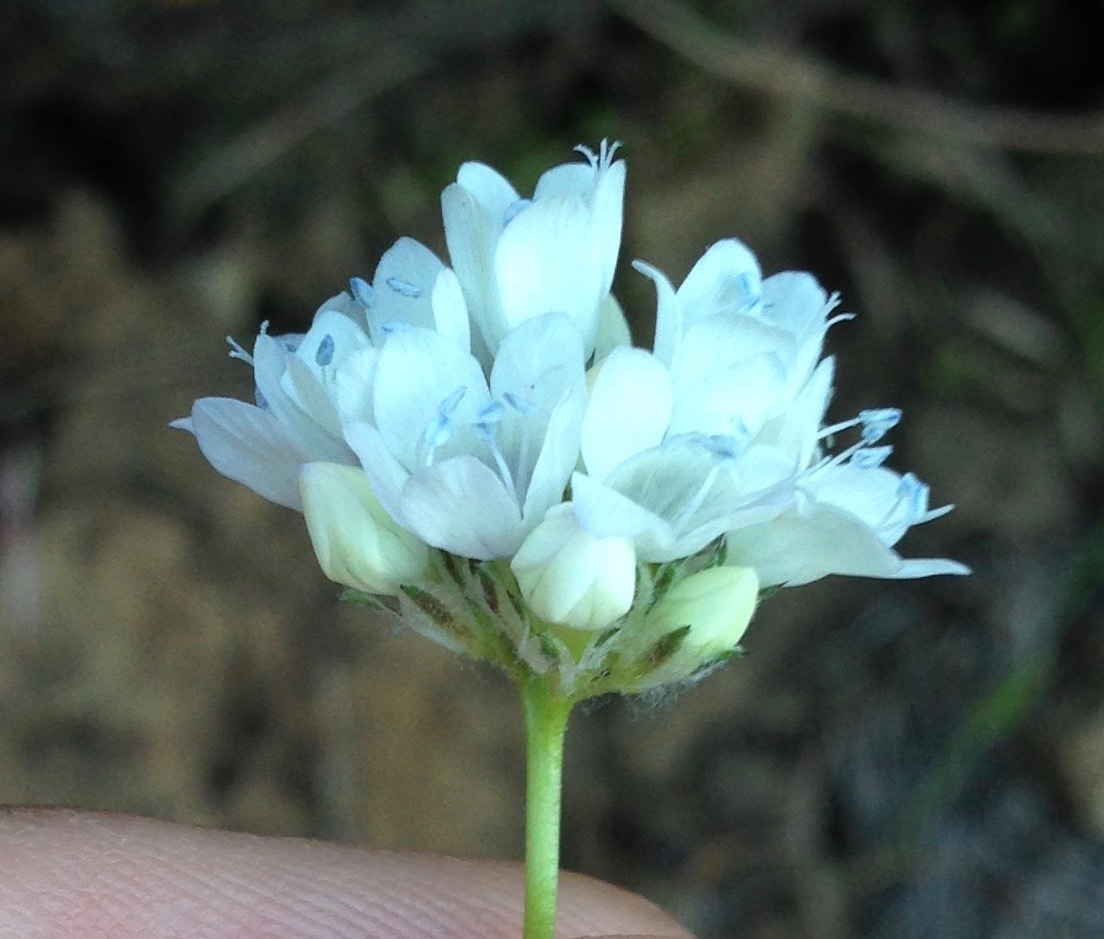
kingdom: Plantae
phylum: Tracheophyta
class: Magnoliopsida
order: Ericales
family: Polemoniaceae
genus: Gilia
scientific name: Gilia capitata
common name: Bluehead gilia
